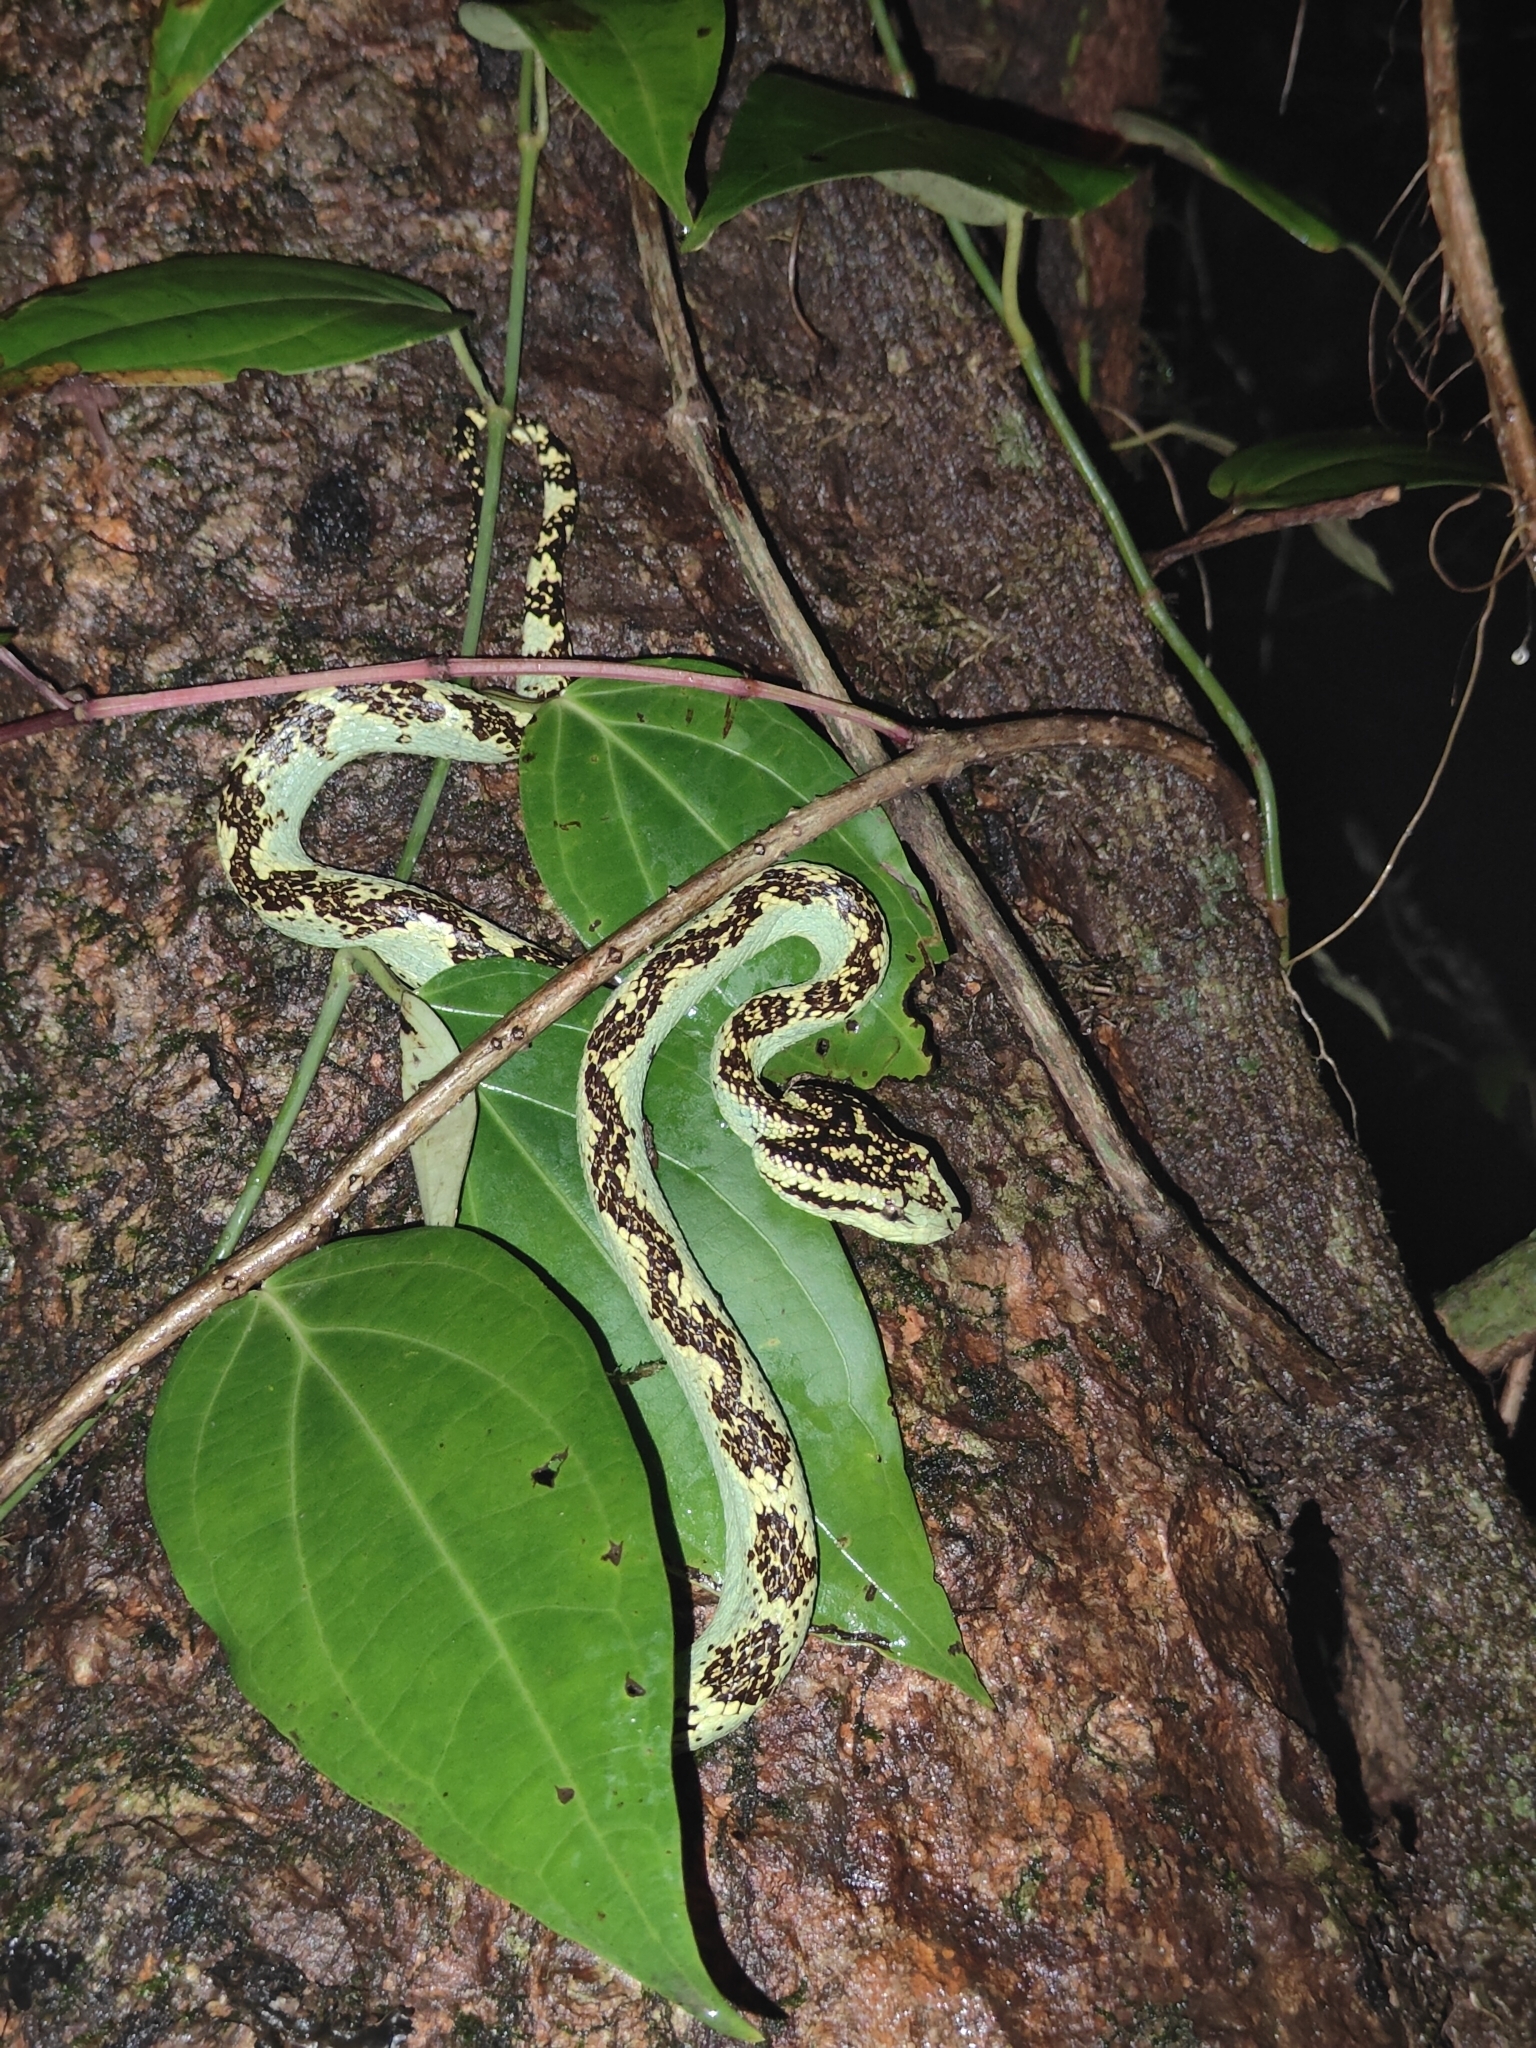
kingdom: Animalia
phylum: Chordata
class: Squamata
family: Viperidae
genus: Craspedocephalus
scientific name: Craspedocephalus malabaricus
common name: Malabarian pit viper
